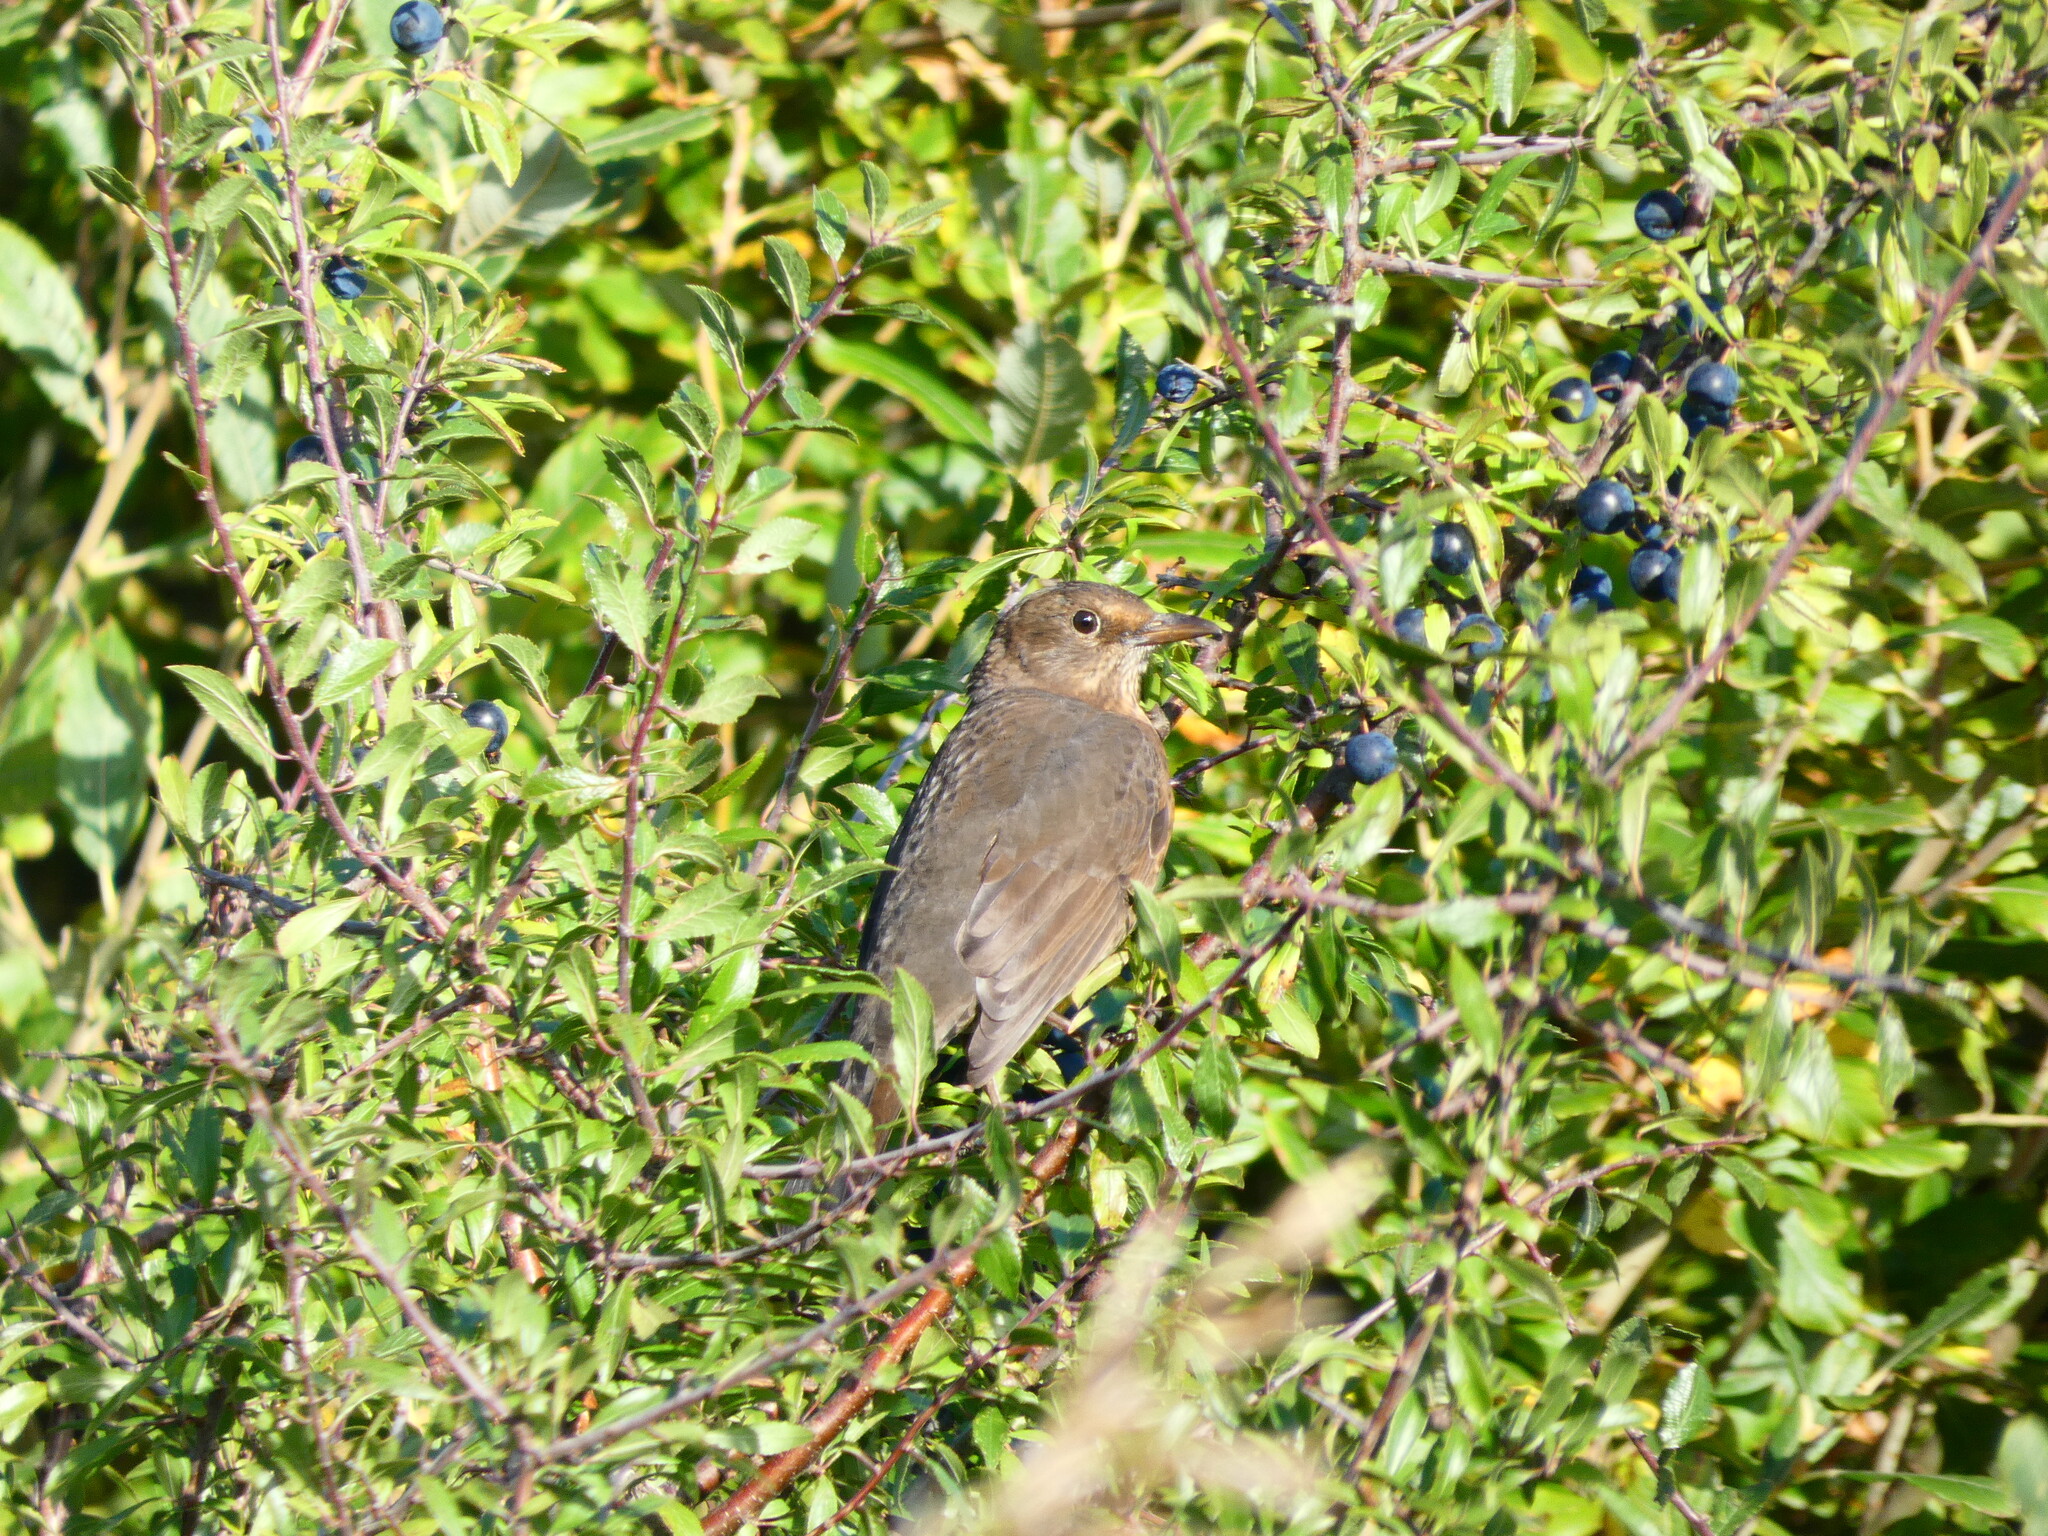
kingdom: Animalia
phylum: Chordata
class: Aves
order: Passeriformes
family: Turdidae
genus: Turdus
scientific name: Turdus merula
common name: Common blackbird
